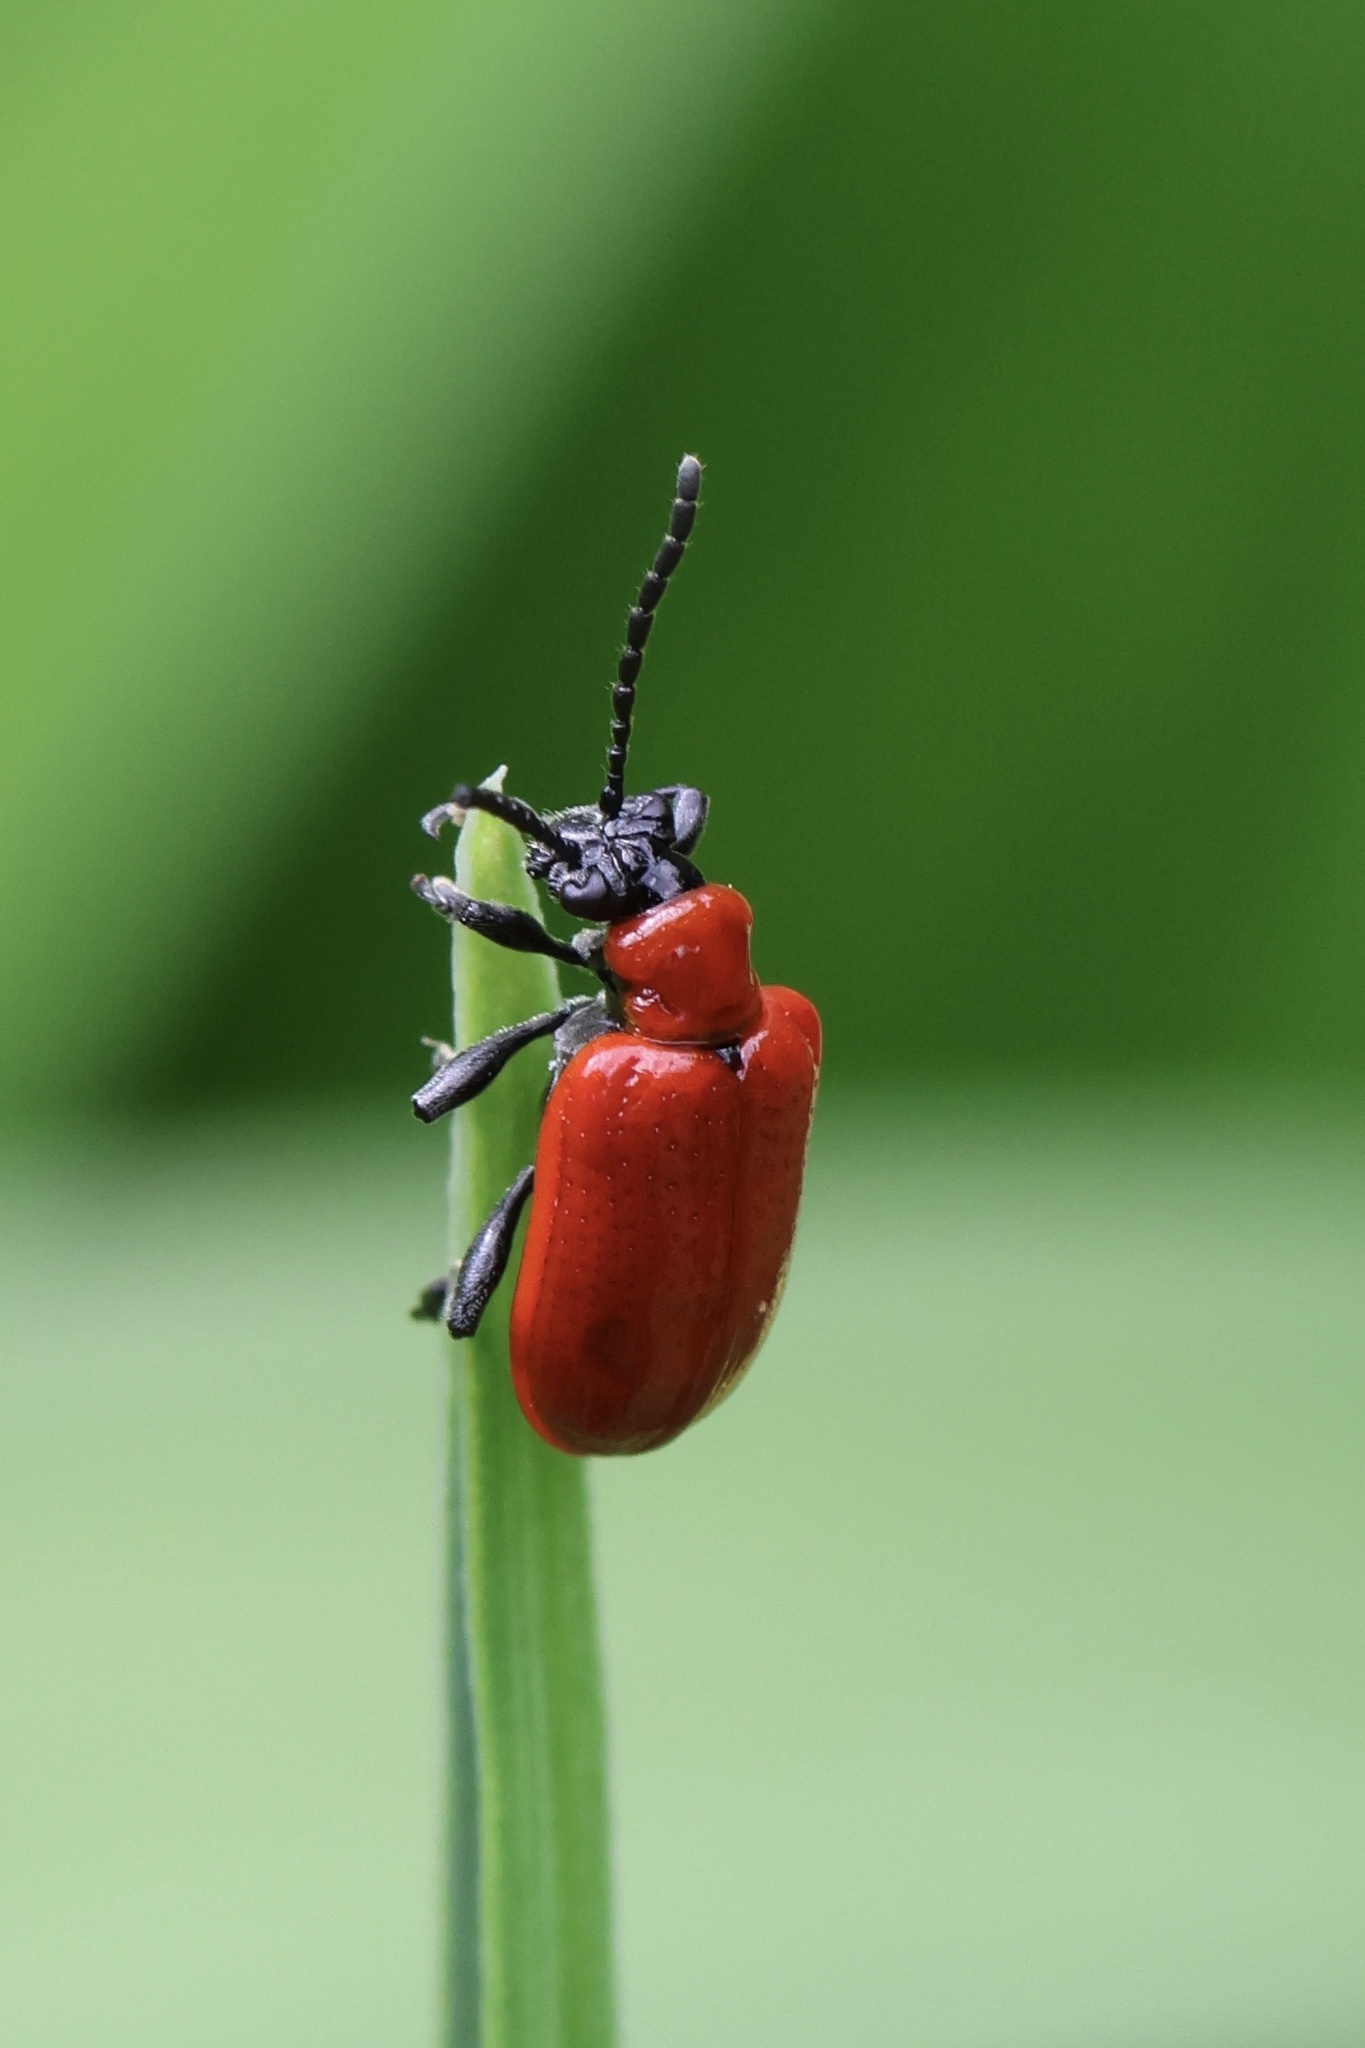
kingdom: Animalia
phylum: Arthropoda
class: Insecta
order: Coleoptera
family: Chrysomelidae
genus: Lilioceris
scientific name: Lilioceris lilii
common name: Lily beetle
